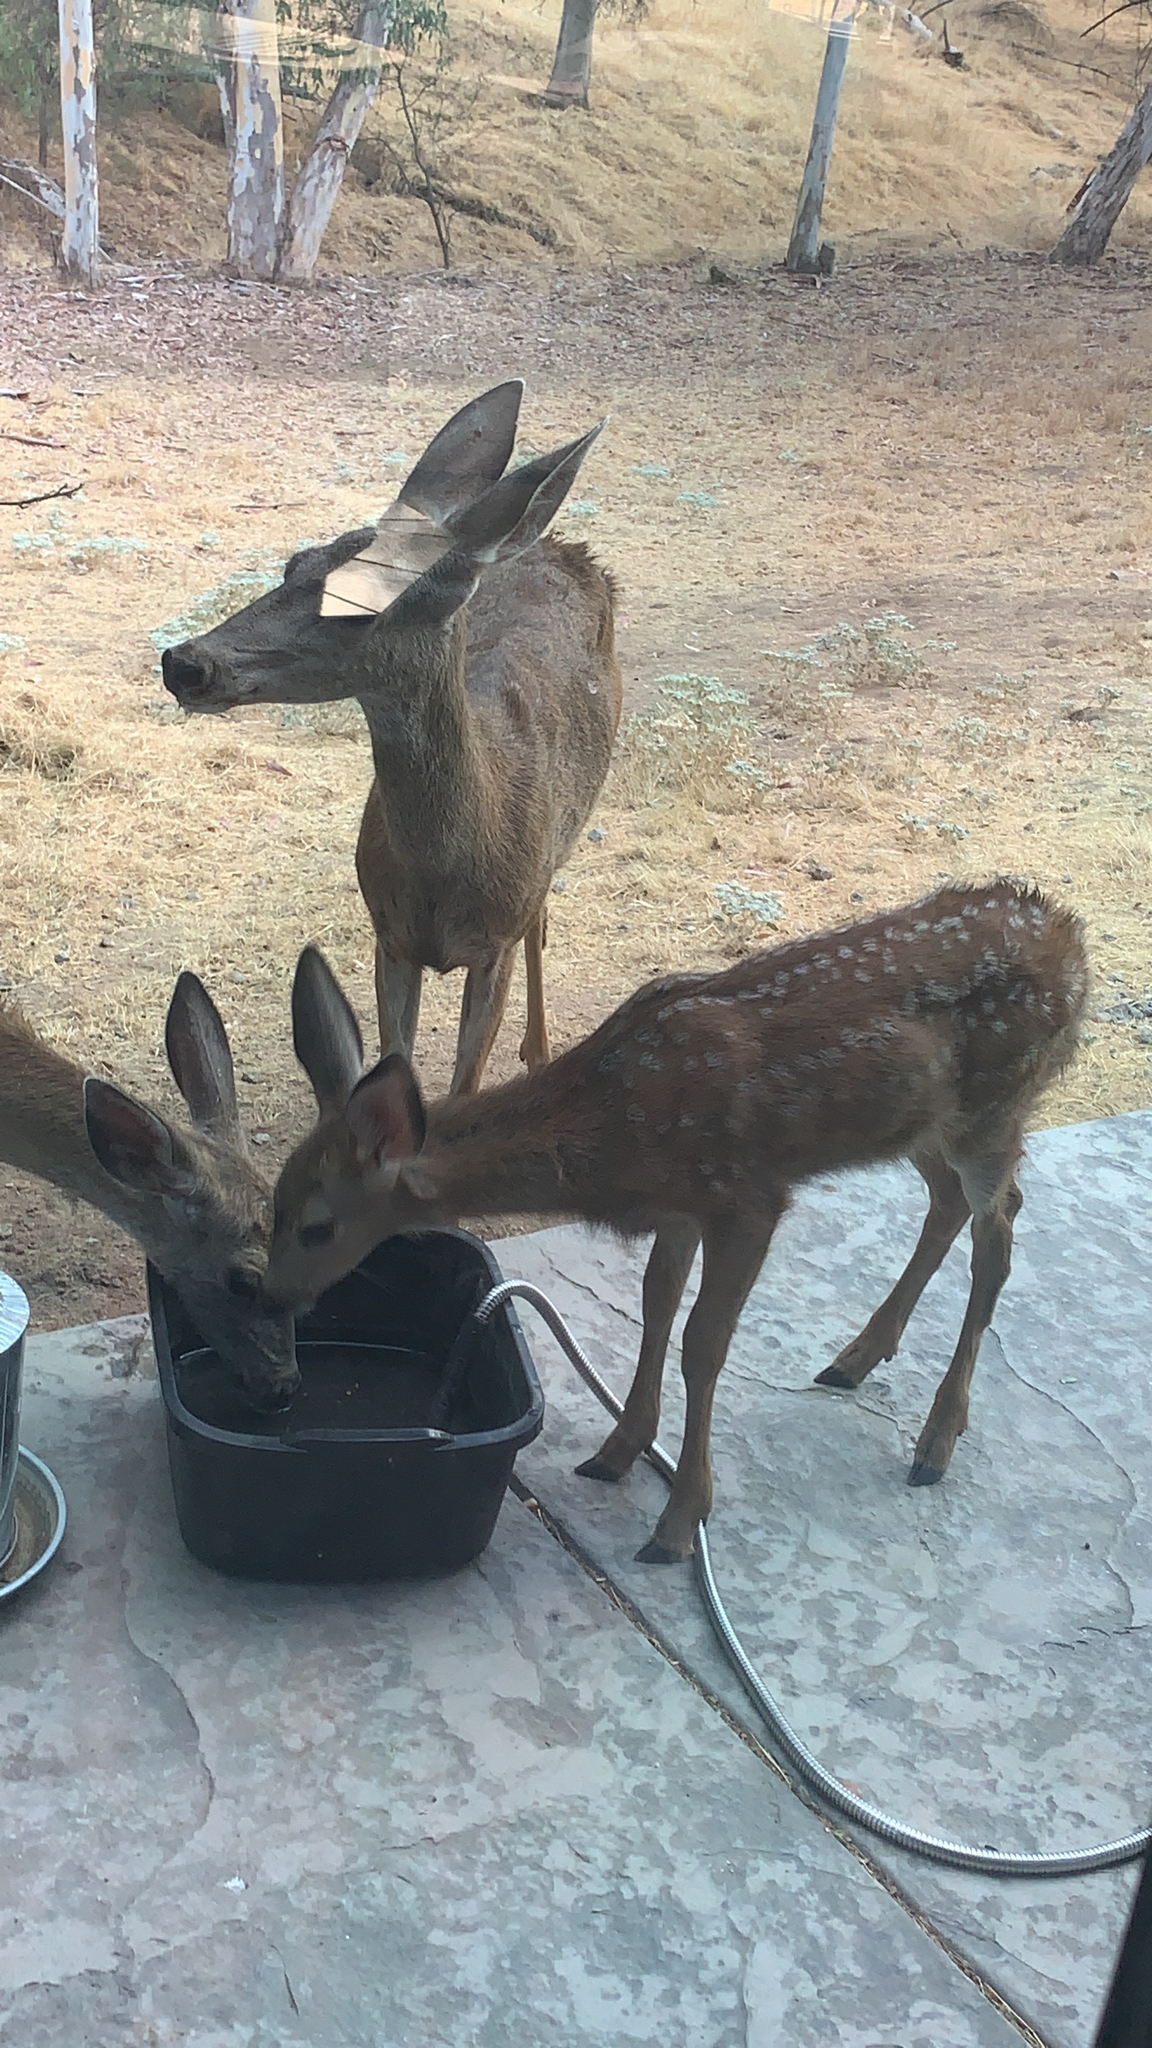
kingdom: Animalia
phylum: Chordata
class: Mammalia
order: Artiodactyla
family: Cervidae
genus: Odocoileus
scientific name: Odocoileus hemionus
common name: Mule deer
